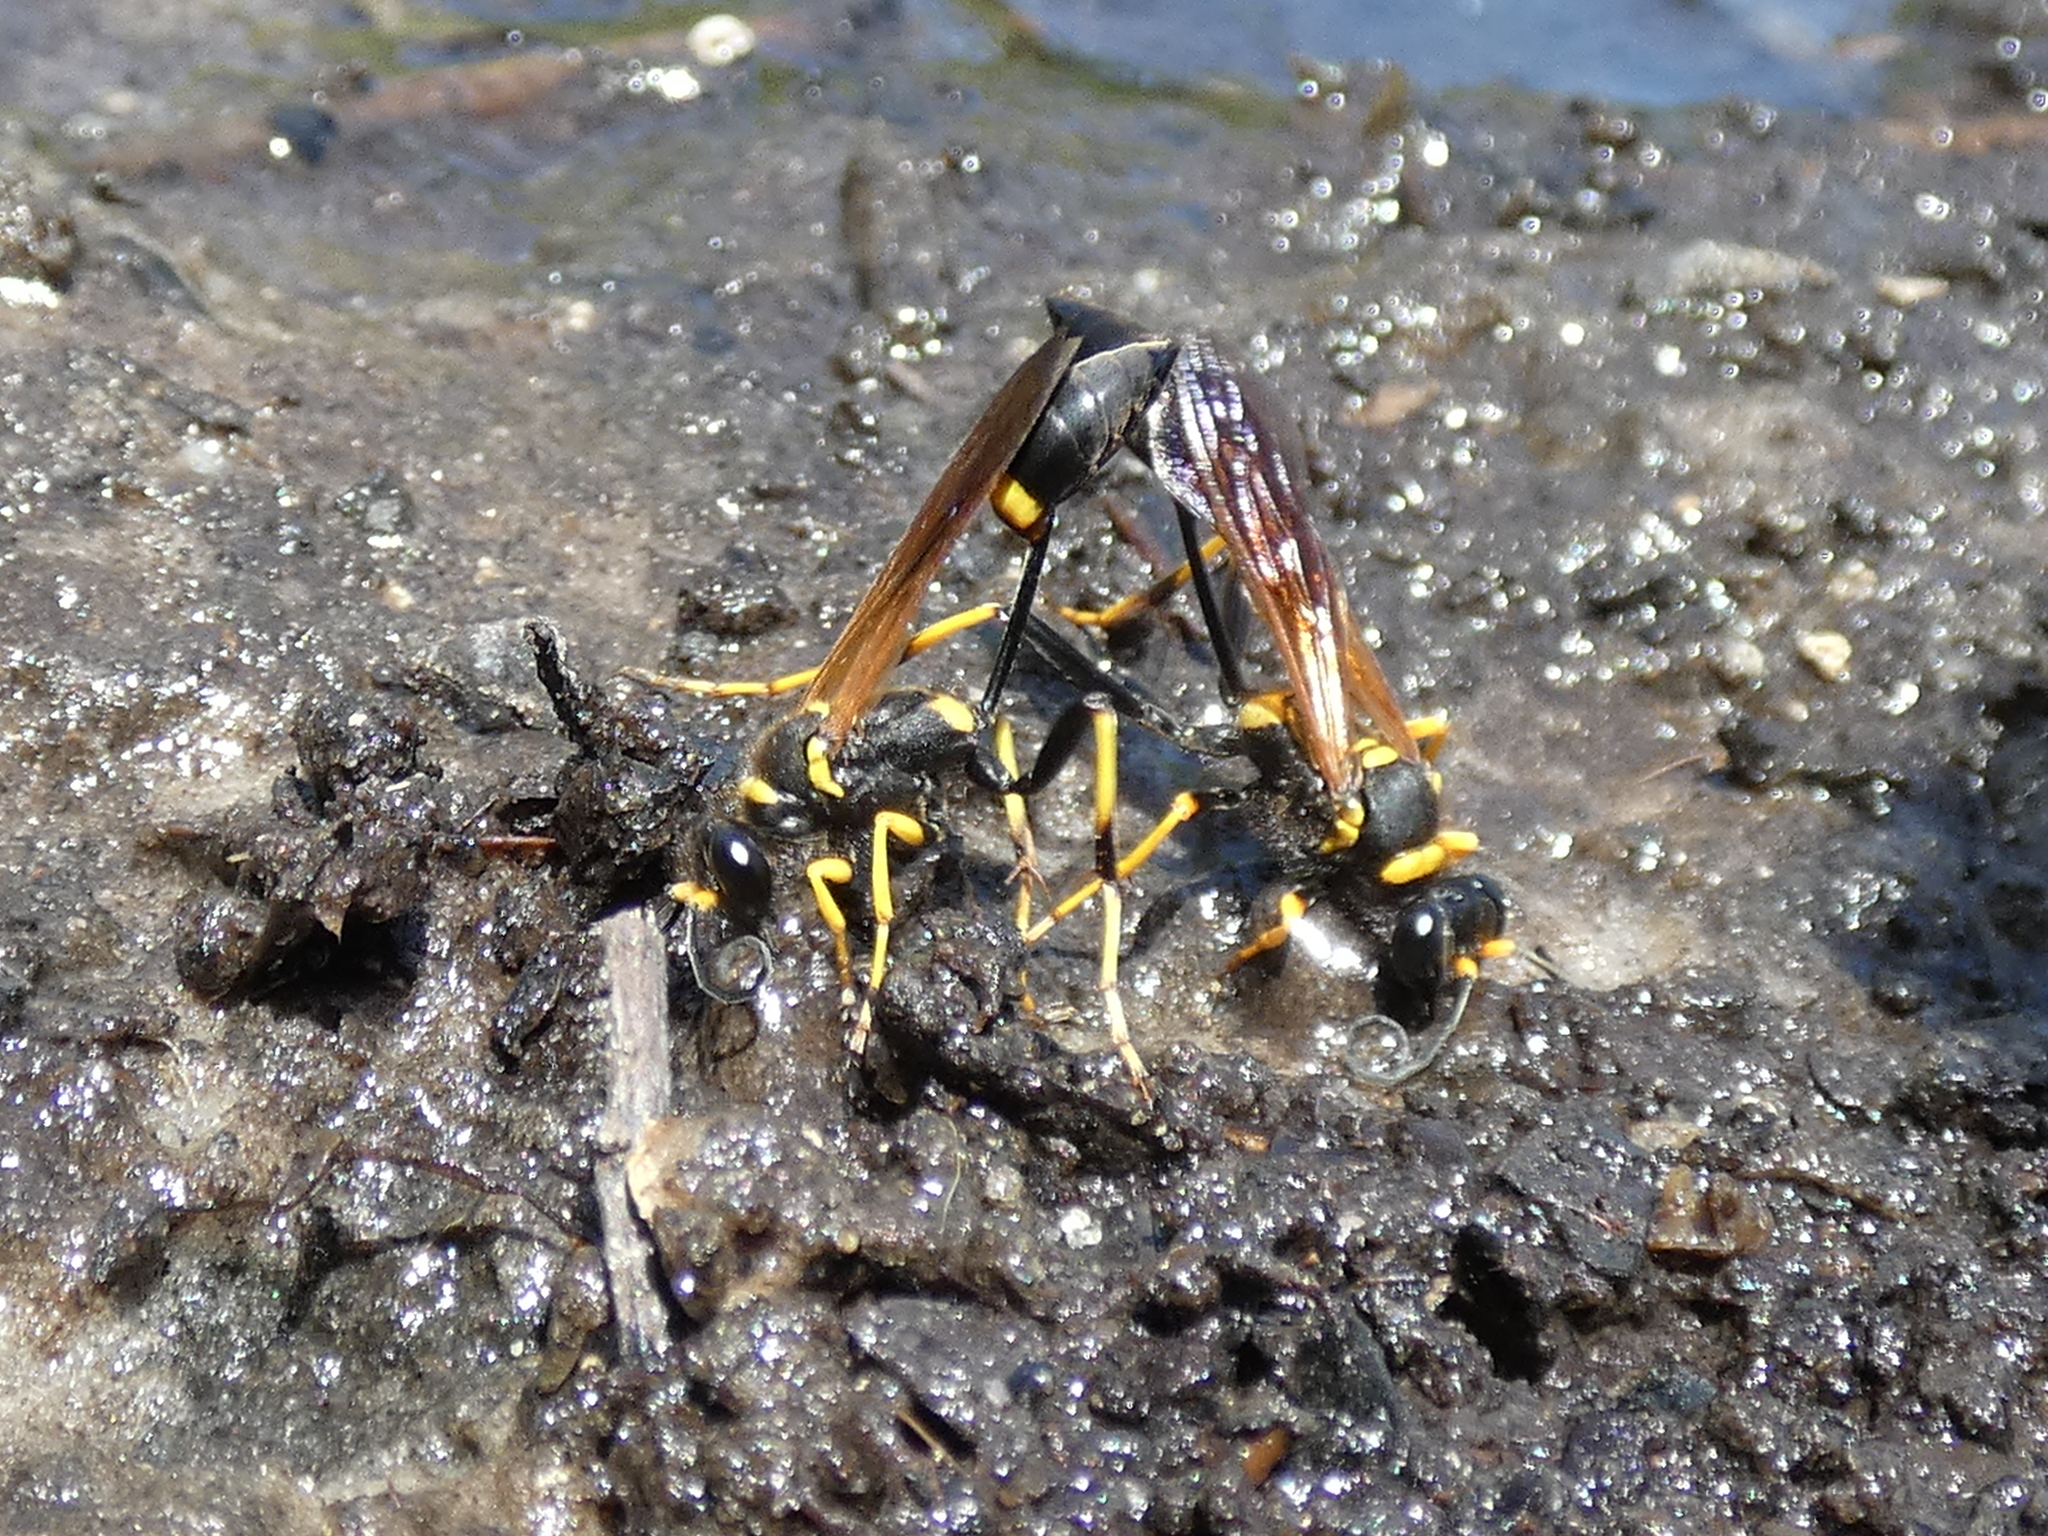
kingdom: Animalia
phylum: Arthropoda
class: Insecta
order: Hymenoptera
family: Sphecidae
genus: Sceliphron
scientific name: Sceliphron caementarium
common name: Mud dauber
